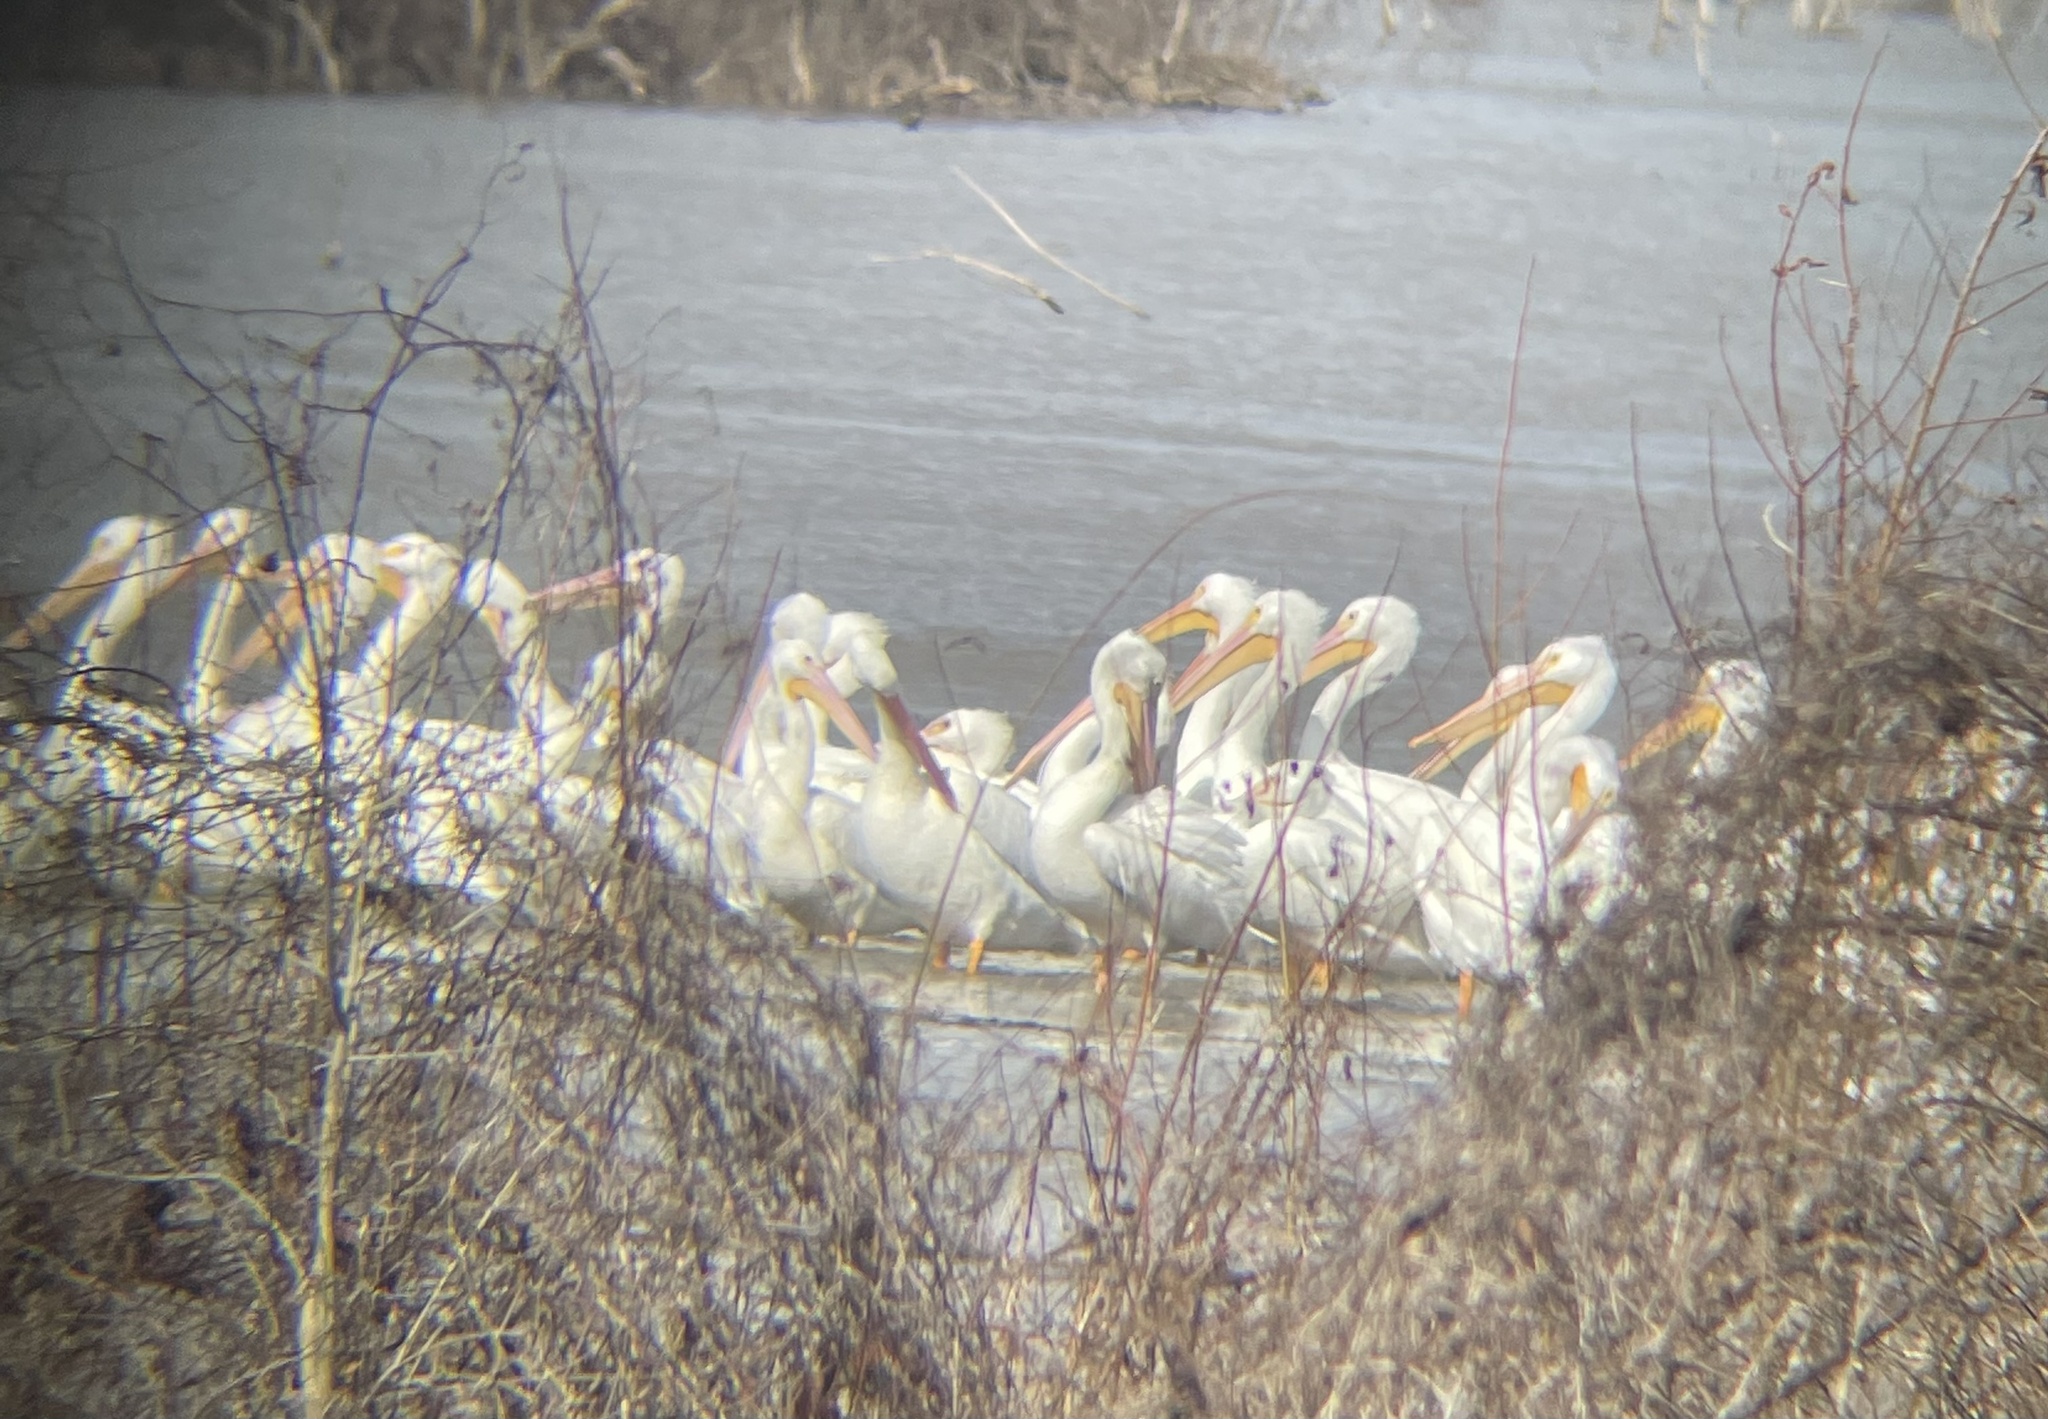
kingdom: Animalia
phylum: Chordata
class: Aves
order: Pelecaniformes
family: Pelecanidae
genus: Pelecanus
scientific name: Pelecanus erythrorhynchos
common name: American white pelican
